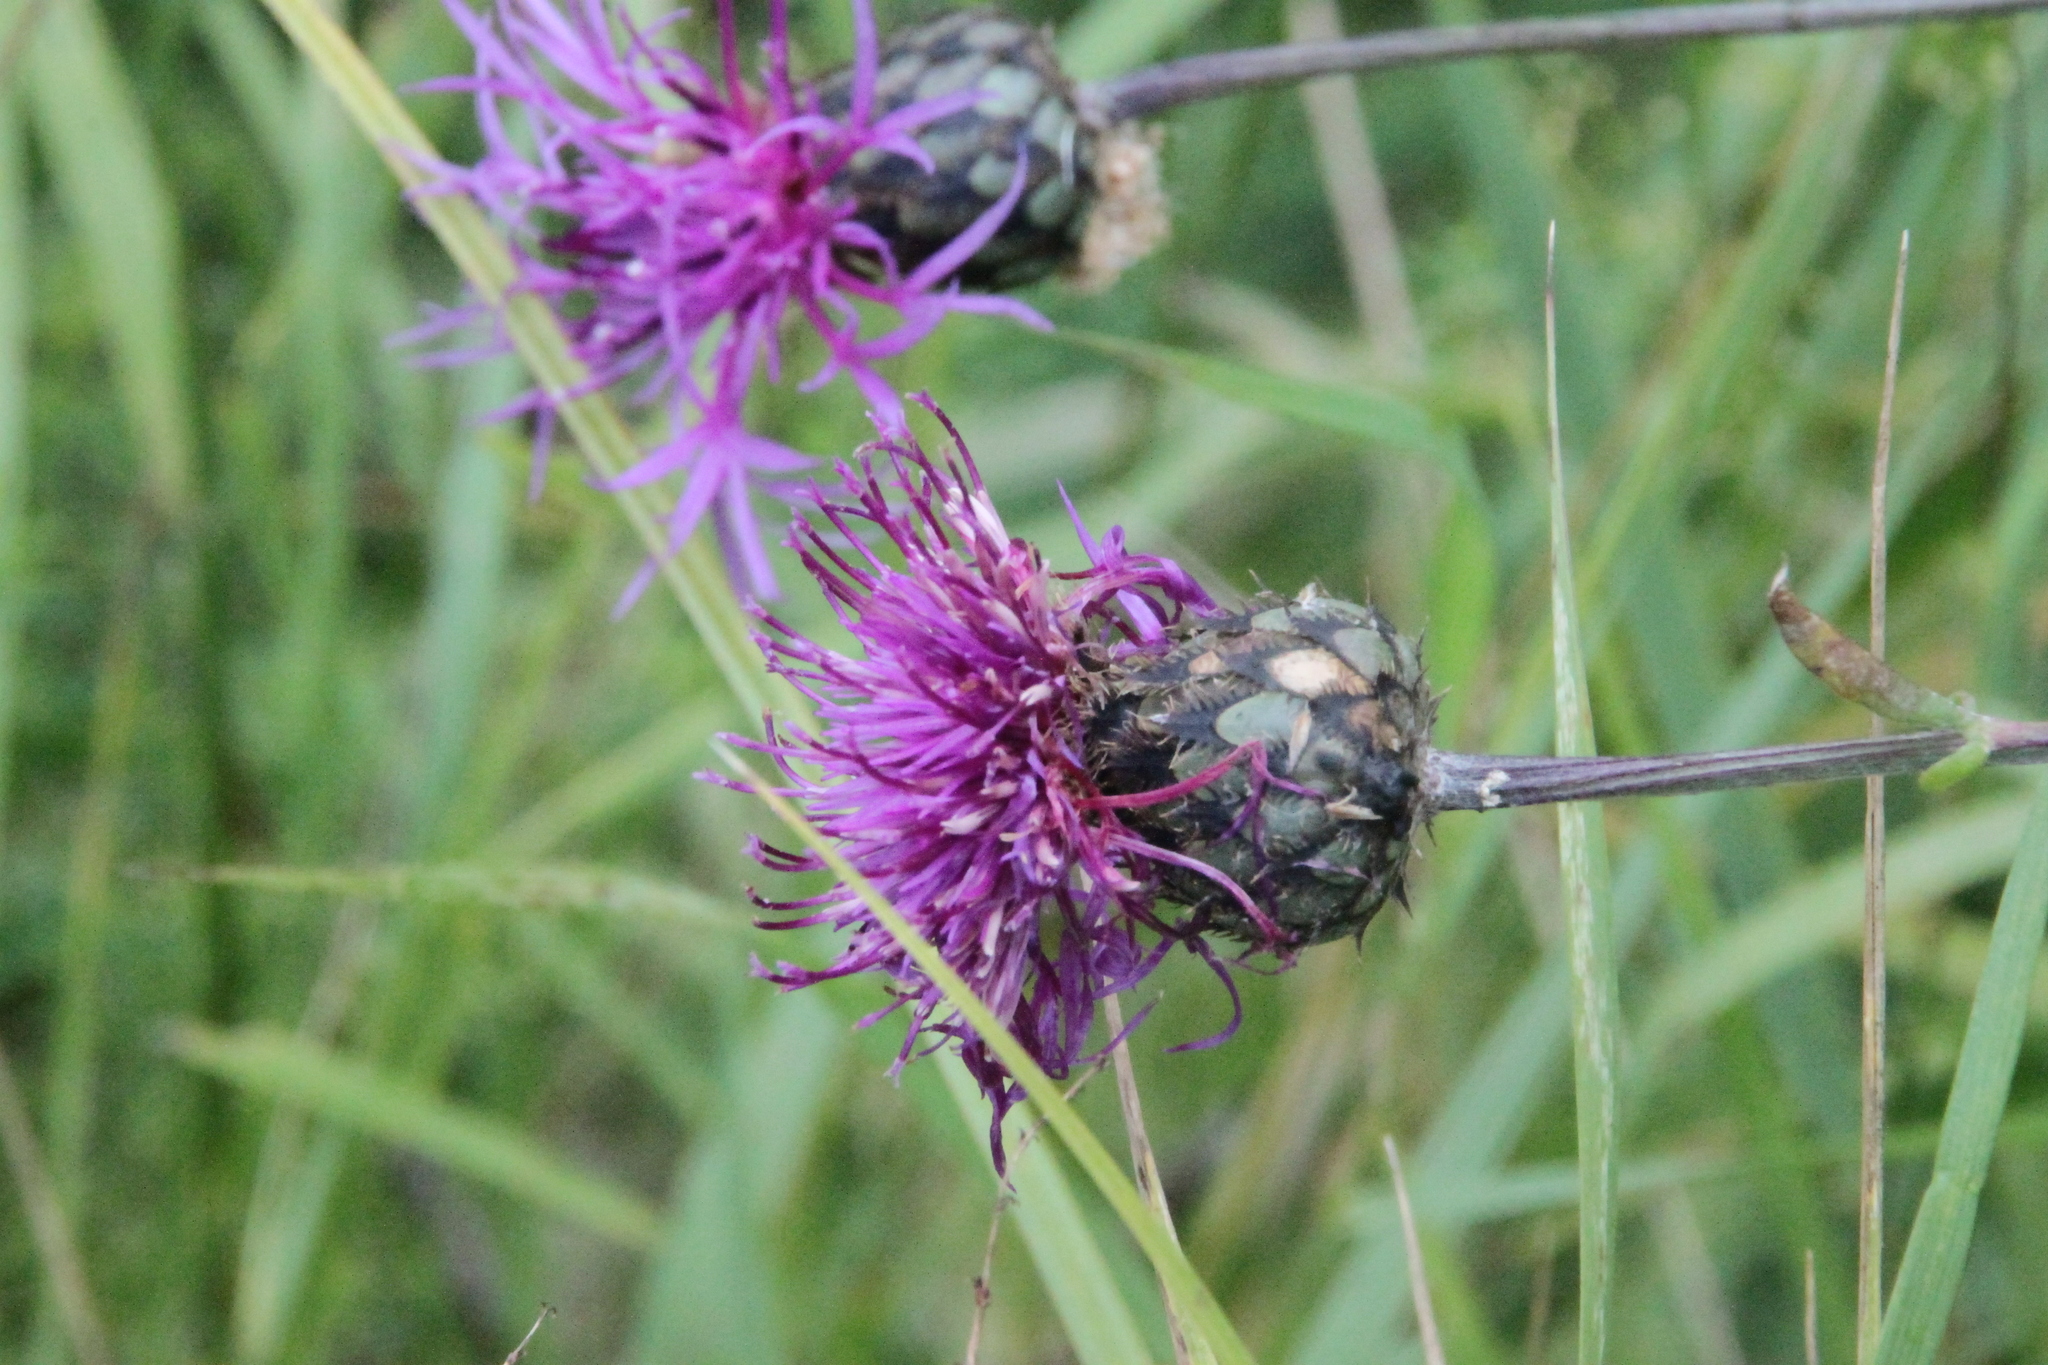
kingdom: Plantae
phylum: Tracheophyta
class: Magnoliopsida
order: Asterales
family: Asteraceae
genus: Centaurea
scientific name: Centaurea scabiosa
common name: Greater knapweed
